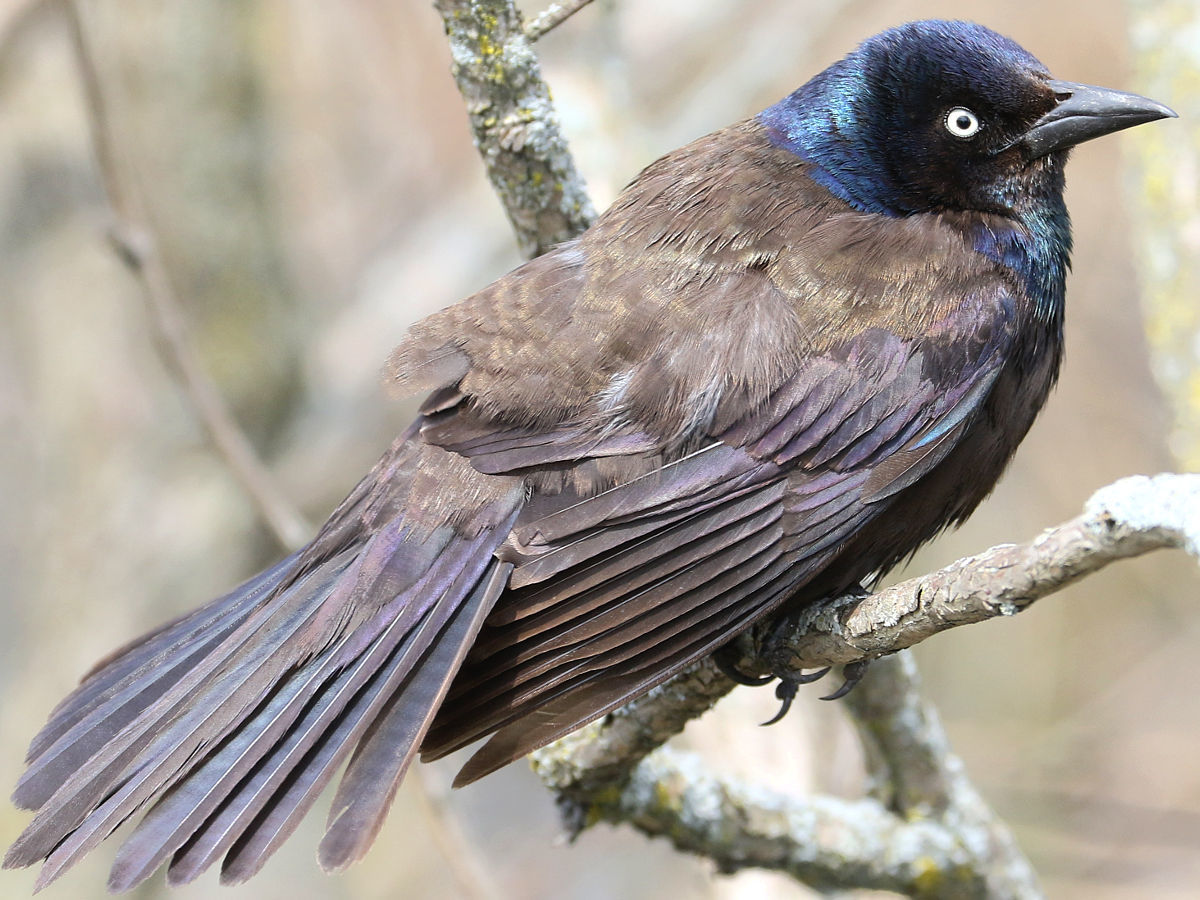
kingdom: Animalia
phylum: Chordata
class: Aves
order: Passeriformes
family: Icteridae
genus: Quiscalus
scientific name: Quiscalus quiscula
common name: Common grackle
